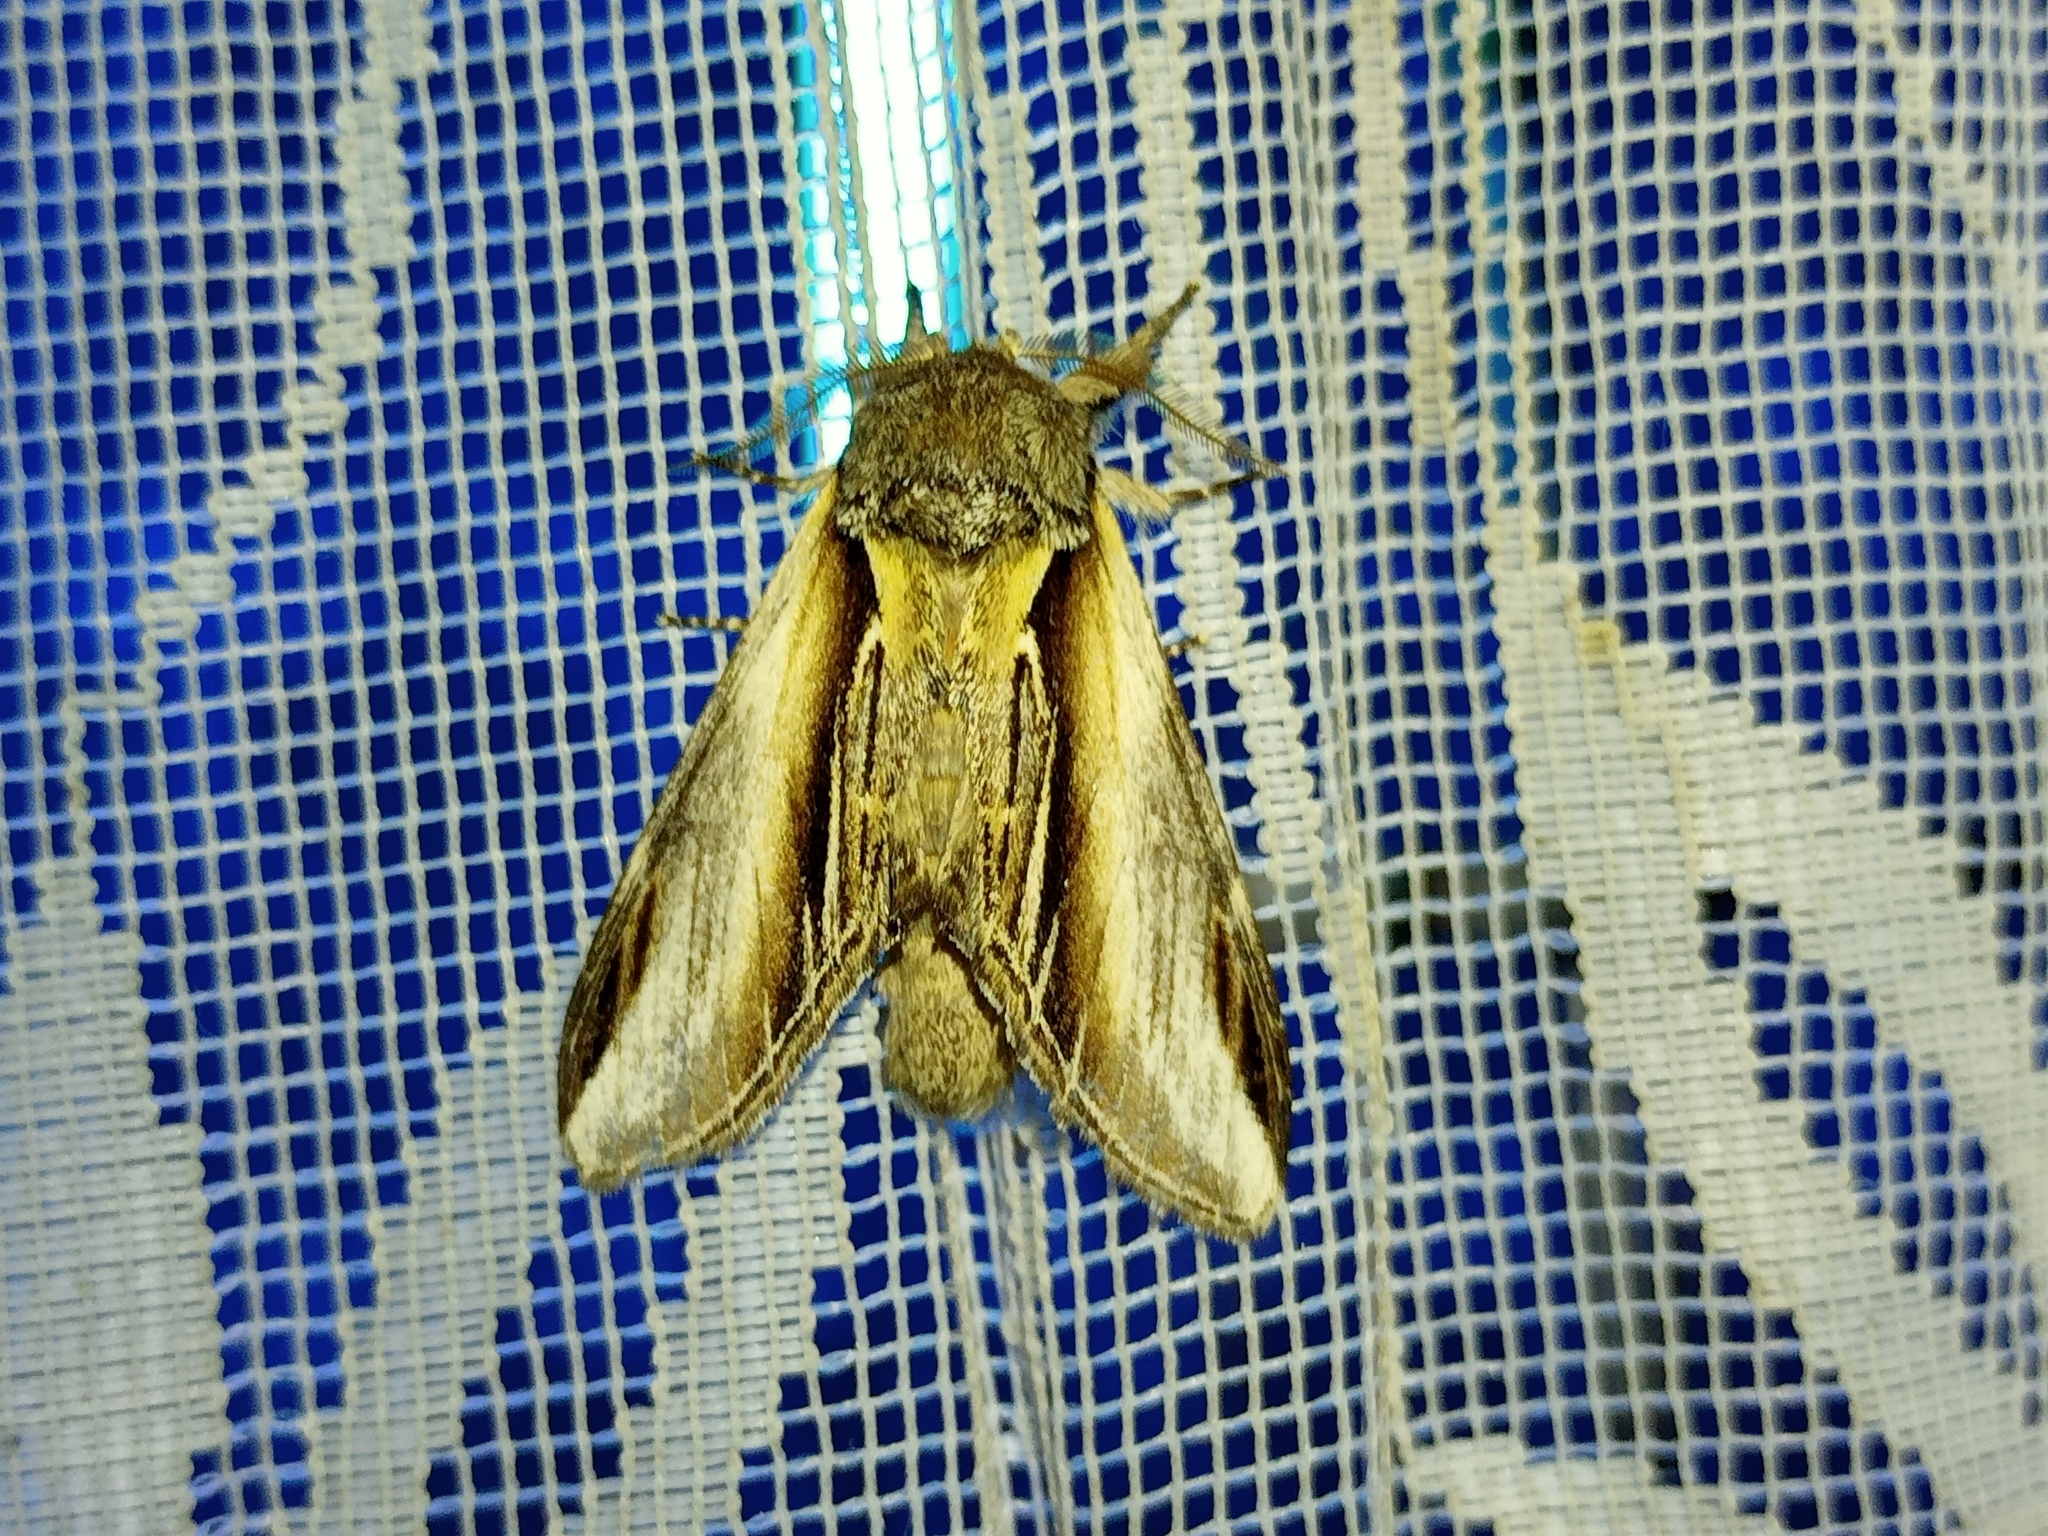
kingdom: Animalia
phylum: Arthropoda
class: Insecta
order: Lepidoptera
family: Notodontidae
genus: Pheosia
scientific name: Pheosia tremula
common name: Swallow prominent
